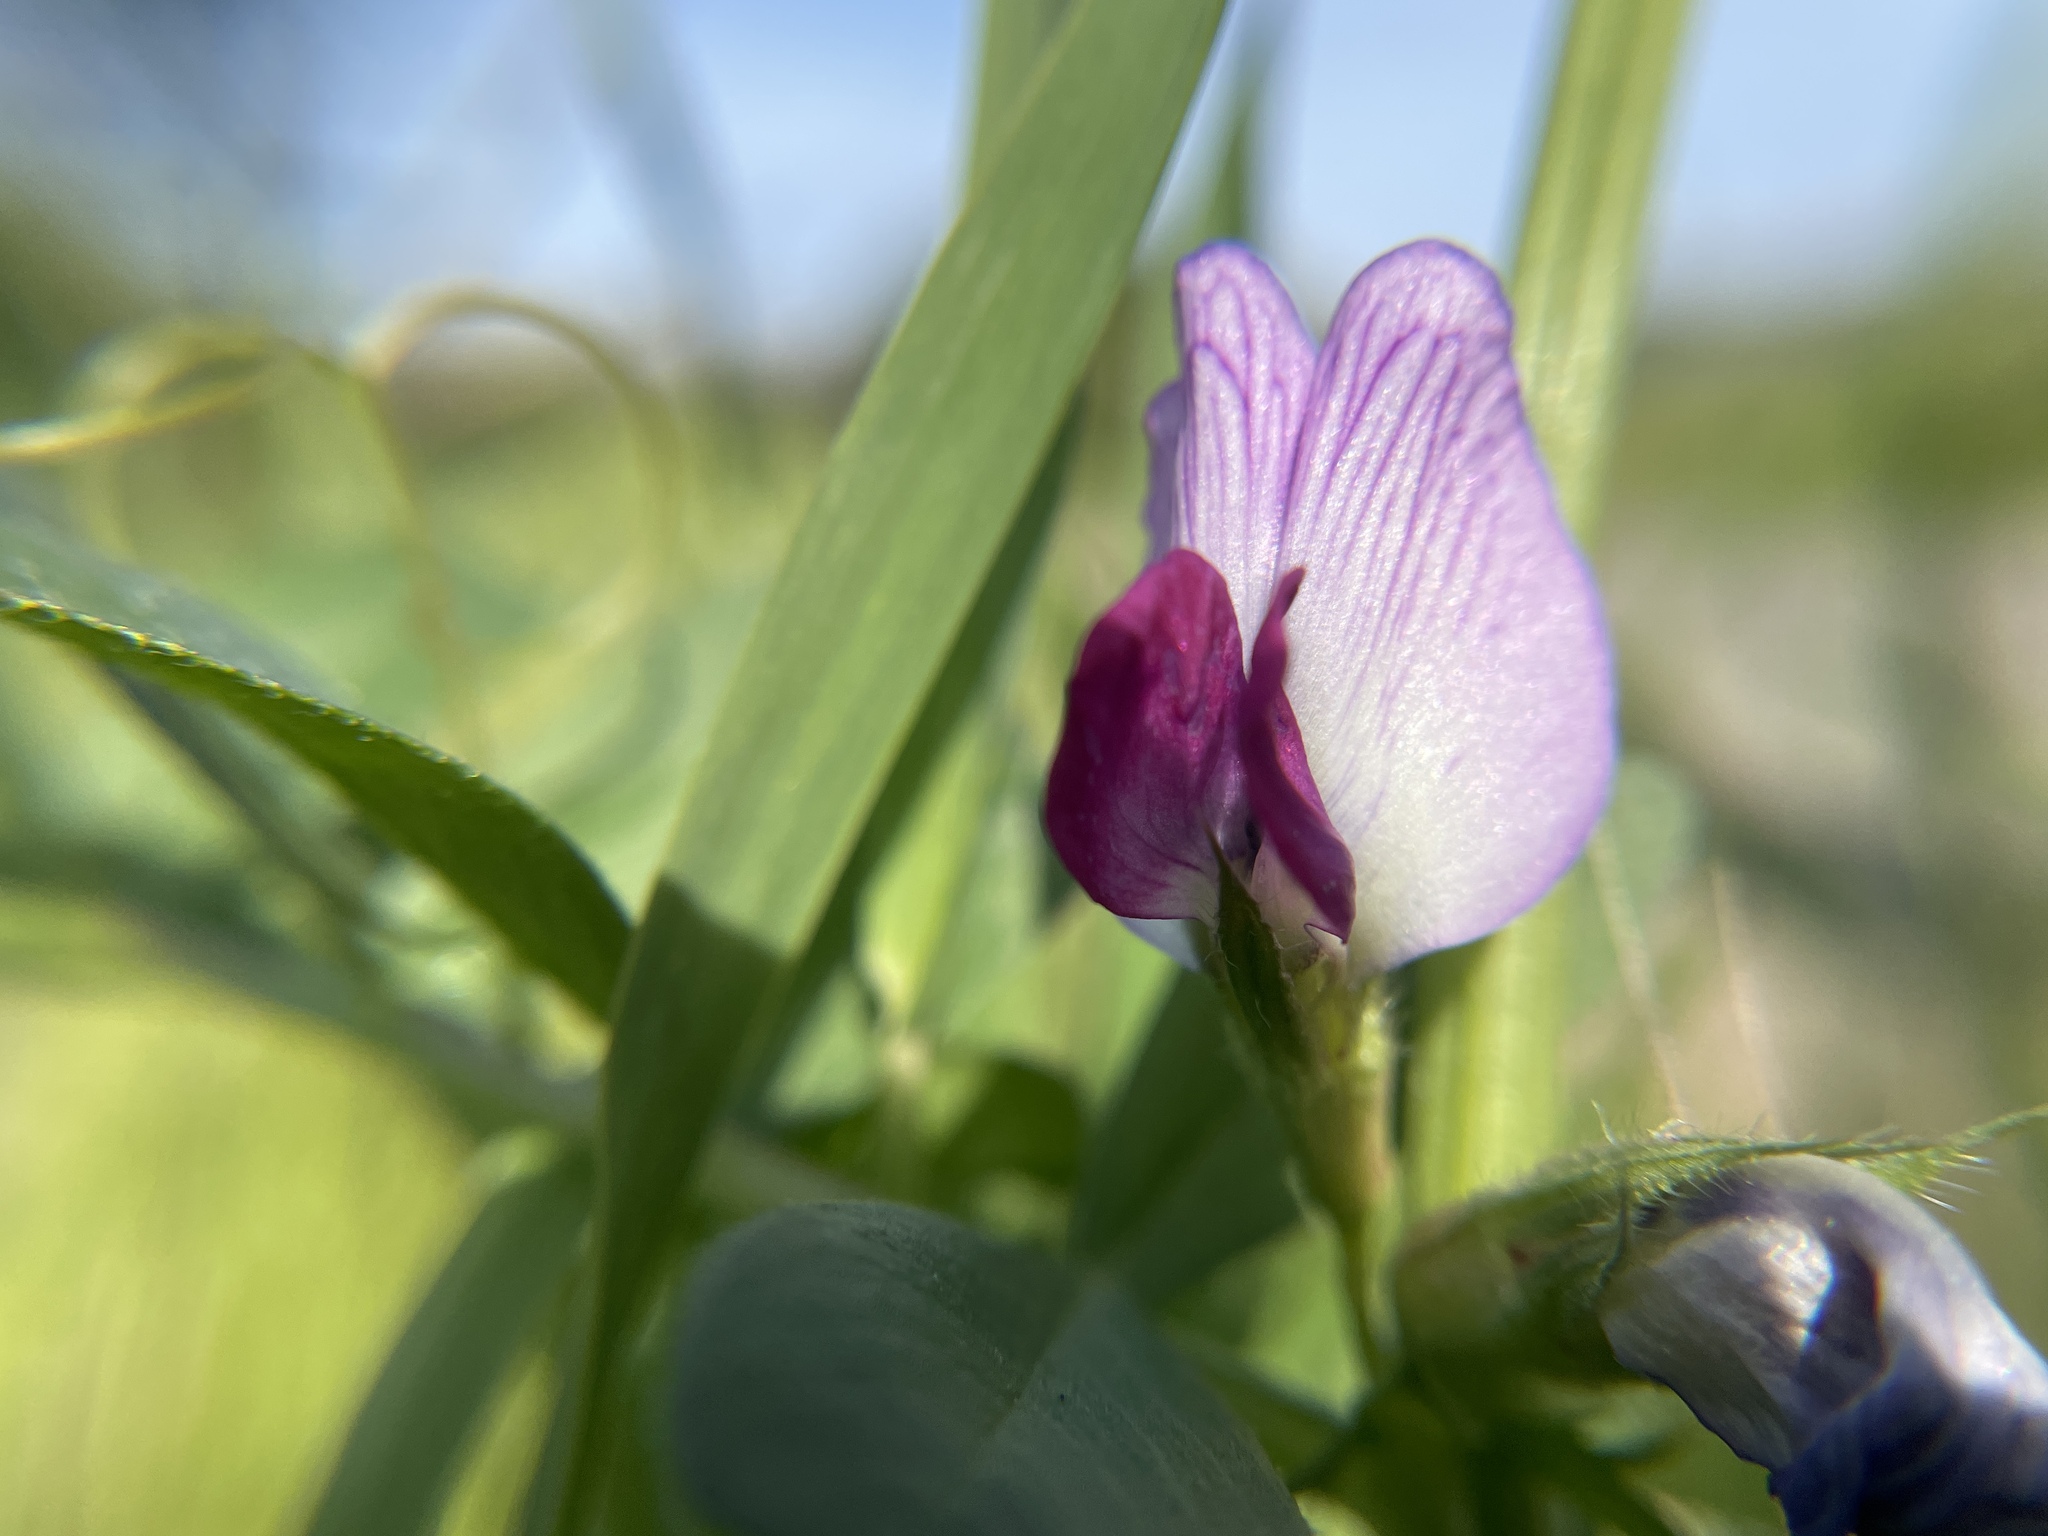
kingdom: Plantae
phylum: Tracheophyta
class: Magnoliopsida
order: Fabales
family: Fabaceae
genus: Vicia
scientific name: Vicia sativa
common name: Garden vetch
